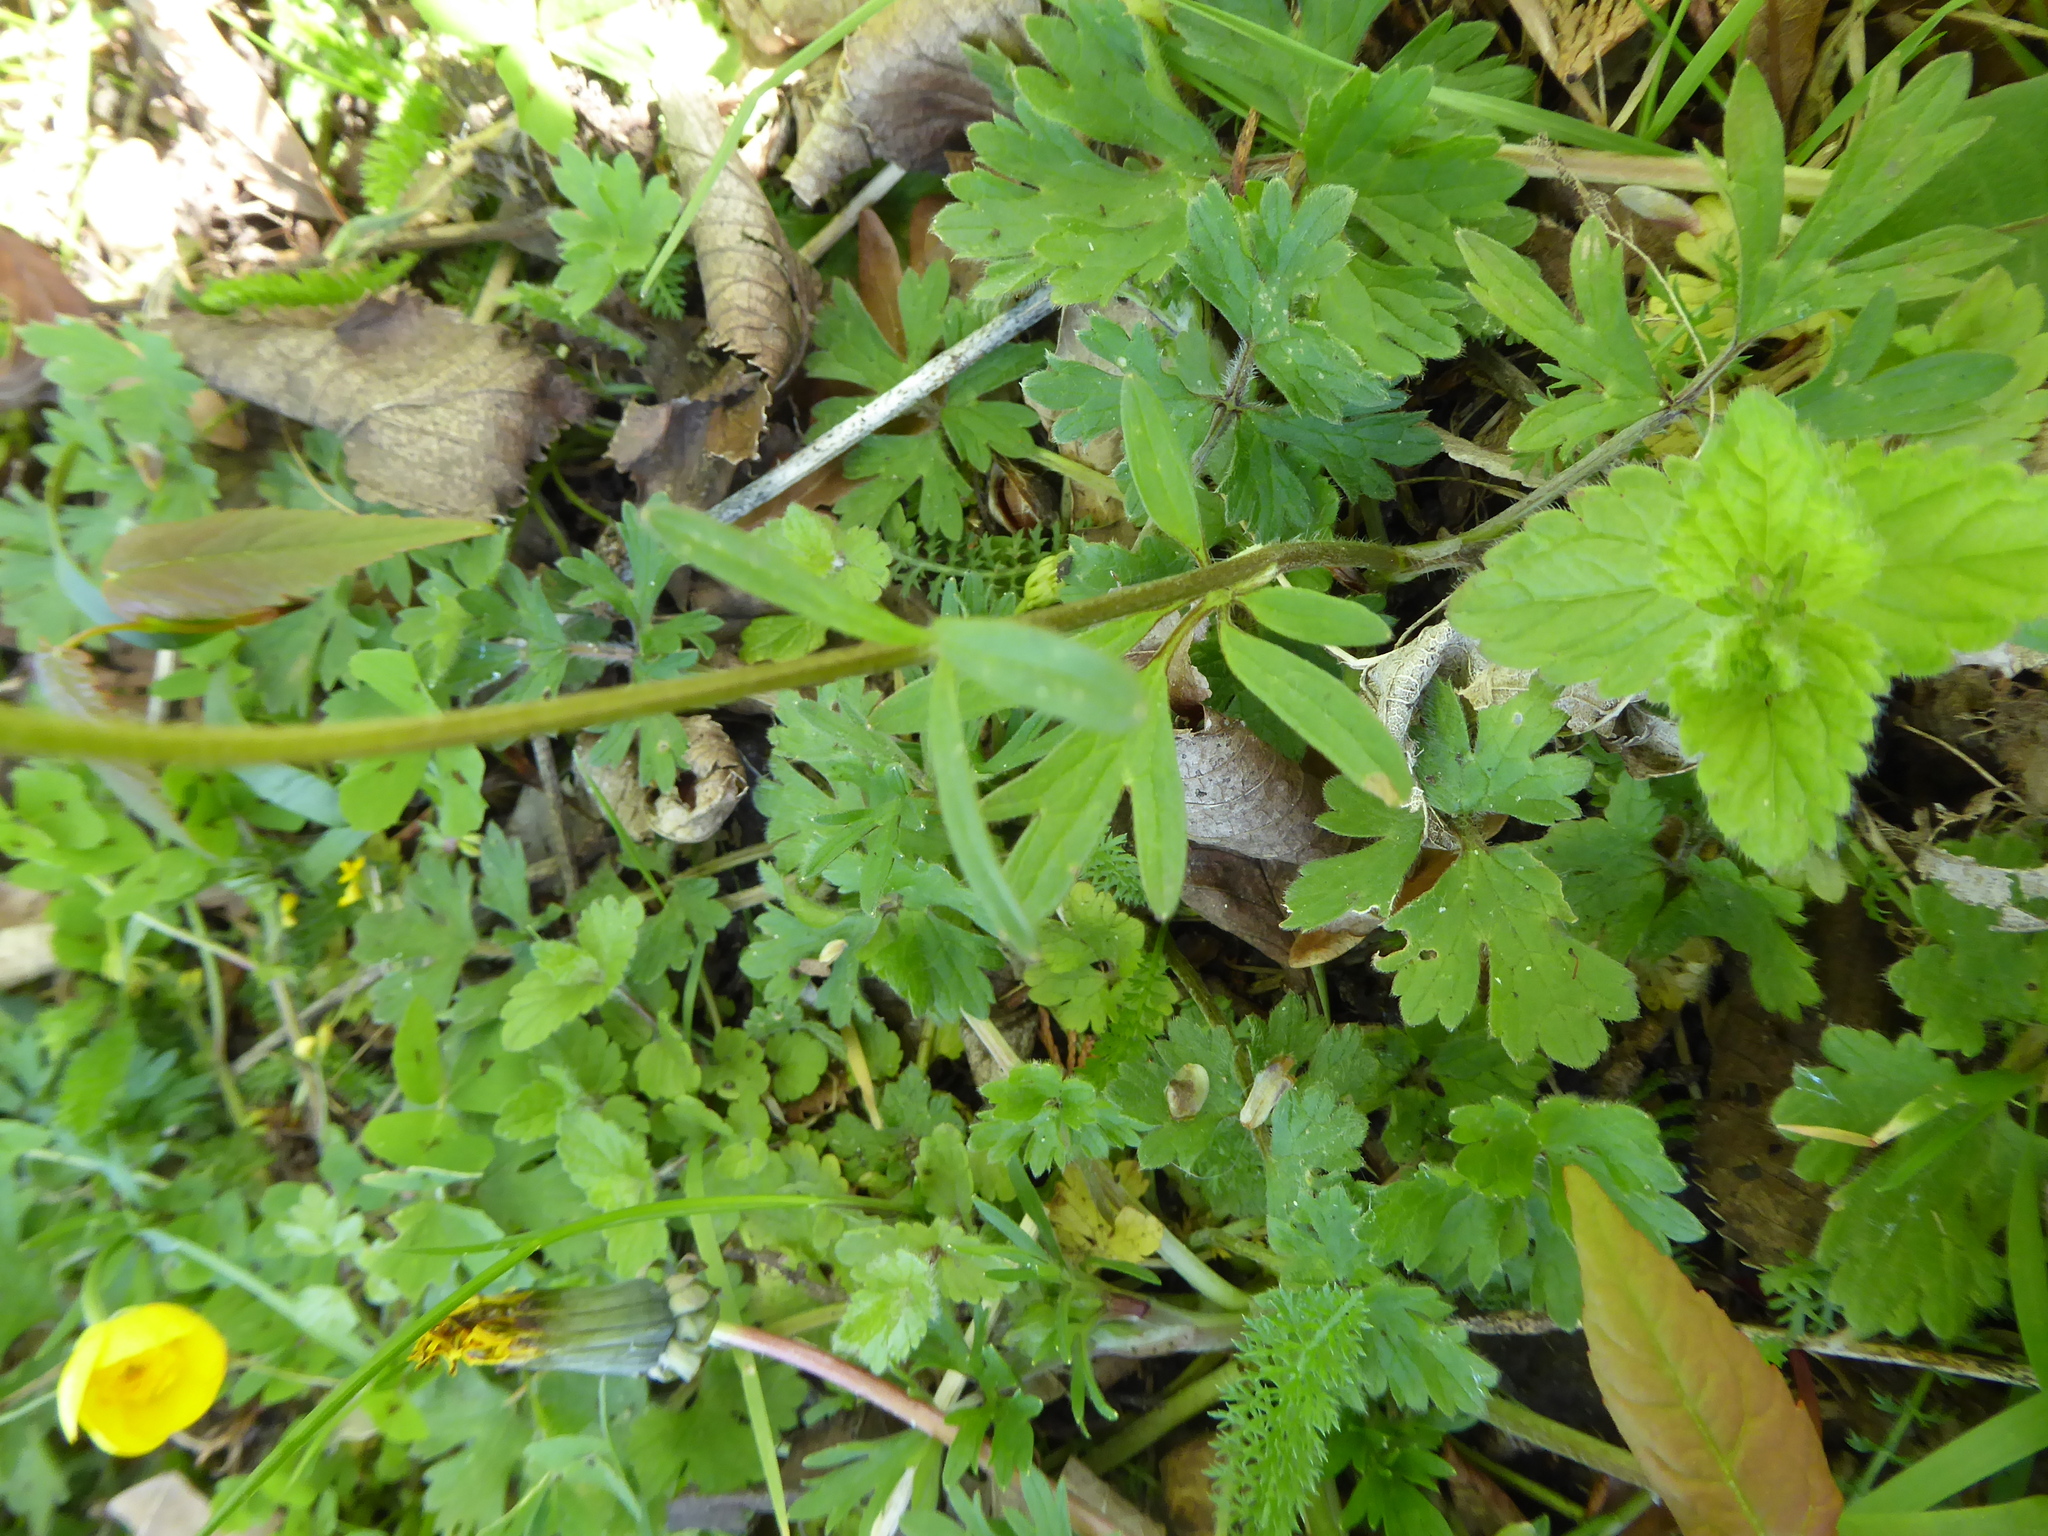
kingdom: Plantae
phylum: Tracheophyta
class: Magnoliopsida
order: Ranunculales
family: Ranunculaceae
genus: Ranunculus
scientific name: Ranunculus bulbosus
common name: Bulbous buttercup
